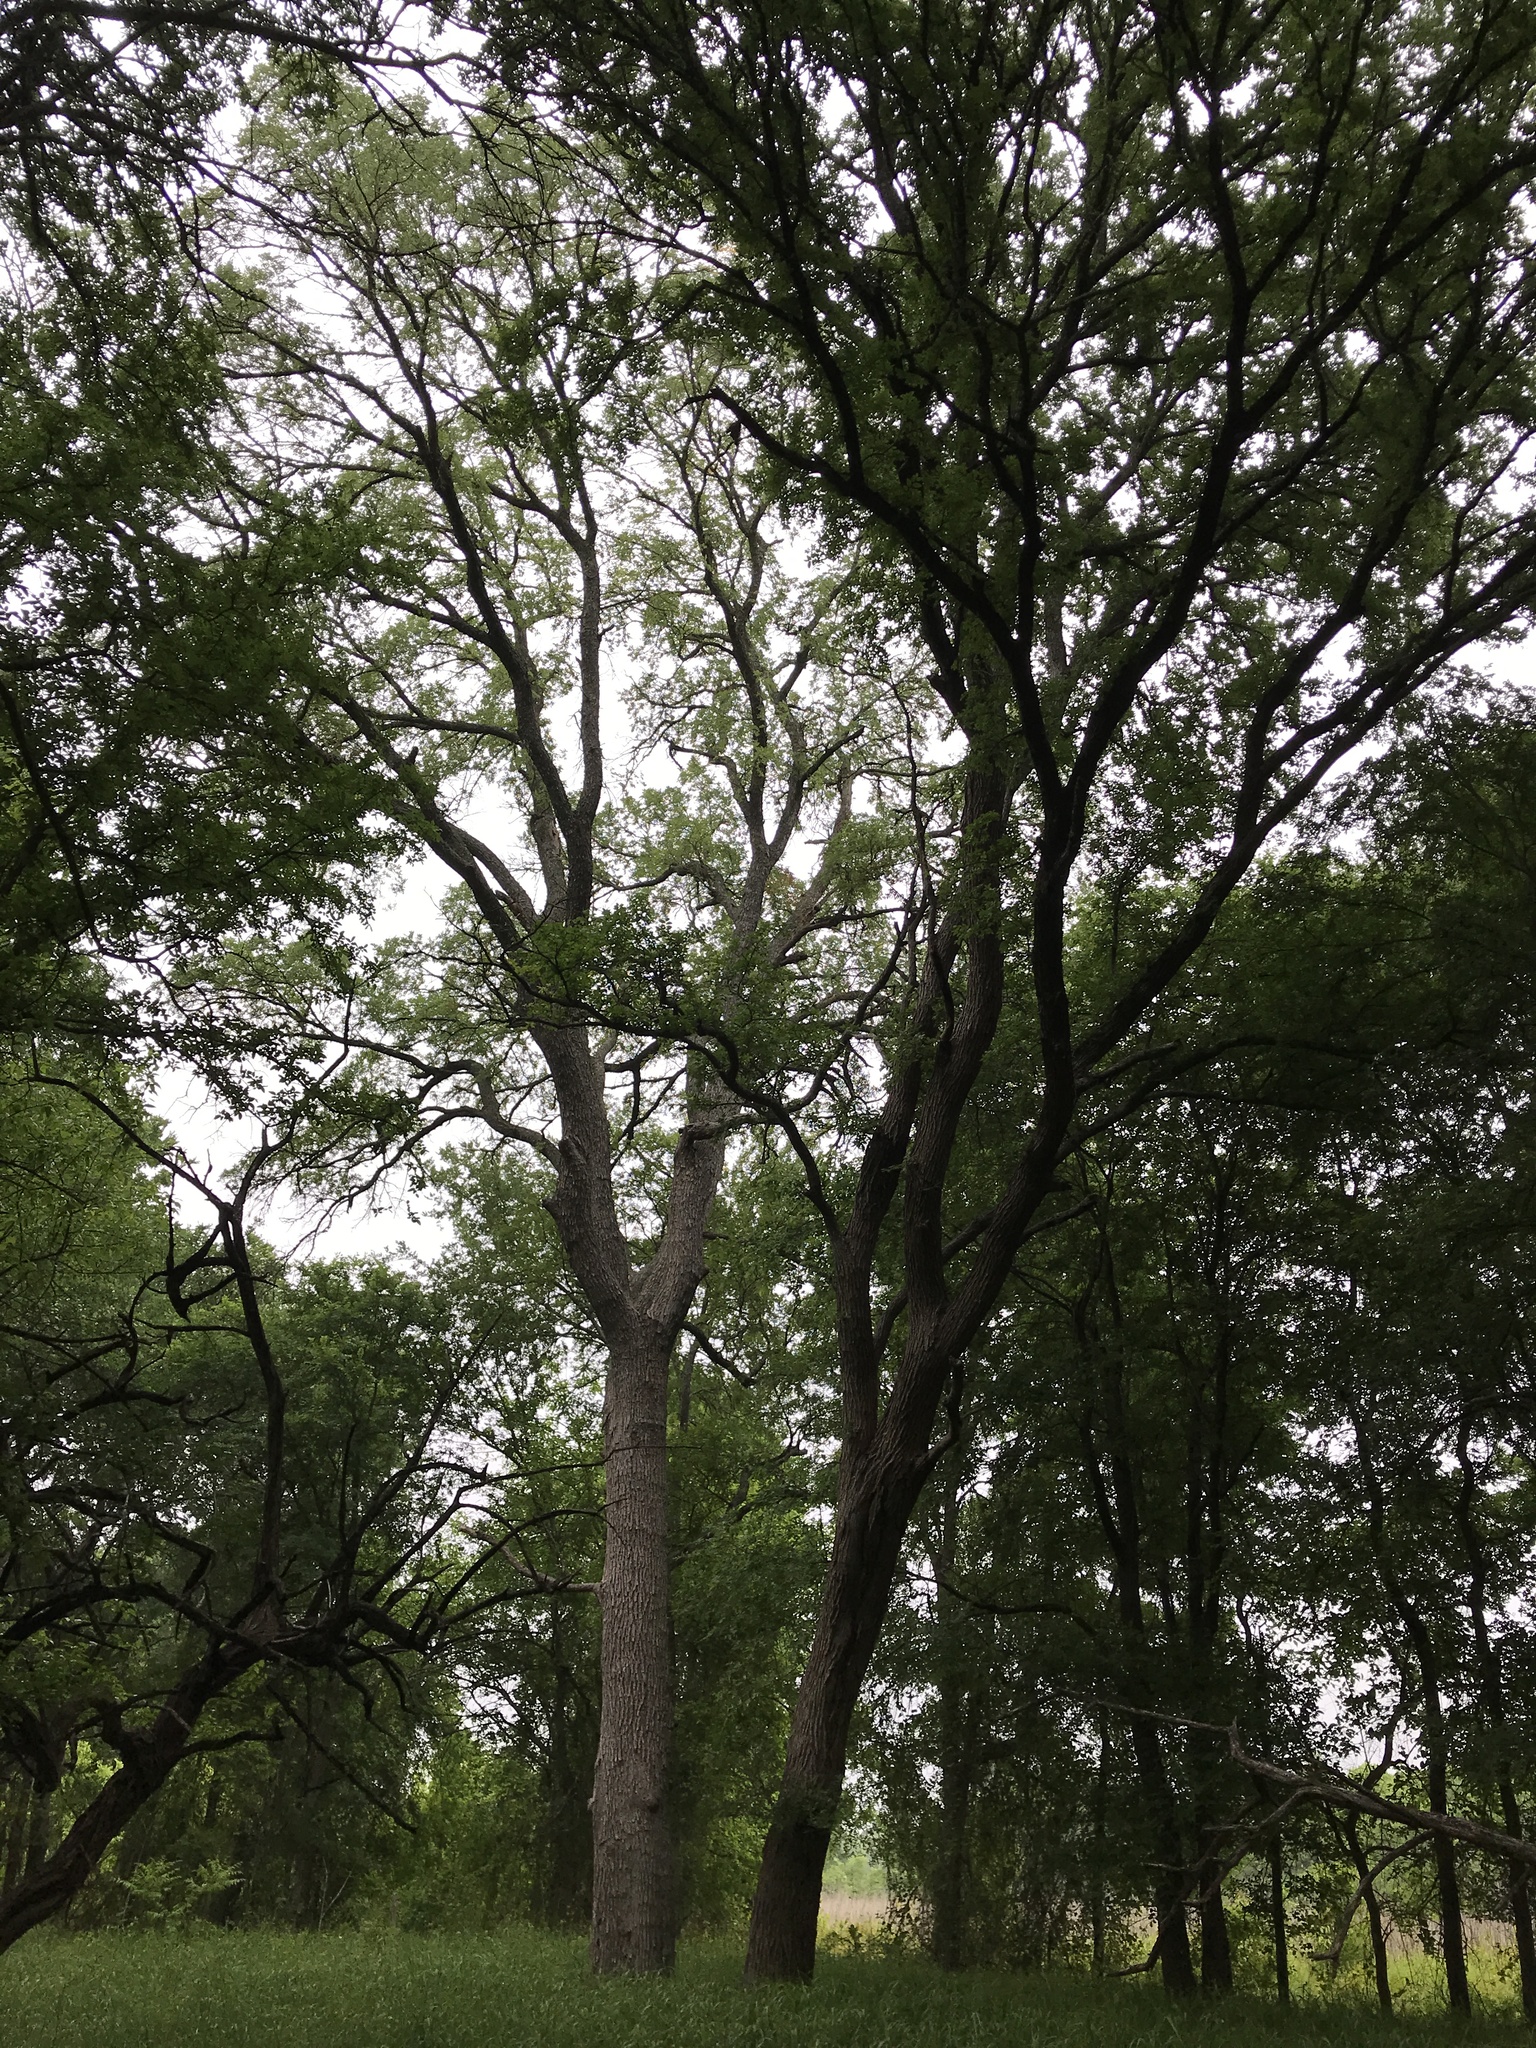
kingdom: Plantae
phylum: Tracheophyta
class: Magnoliopsida
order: Rosales
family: Ulmaceae
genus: Ulmus
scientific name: Ulmus crassifolia
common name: Basket elm
